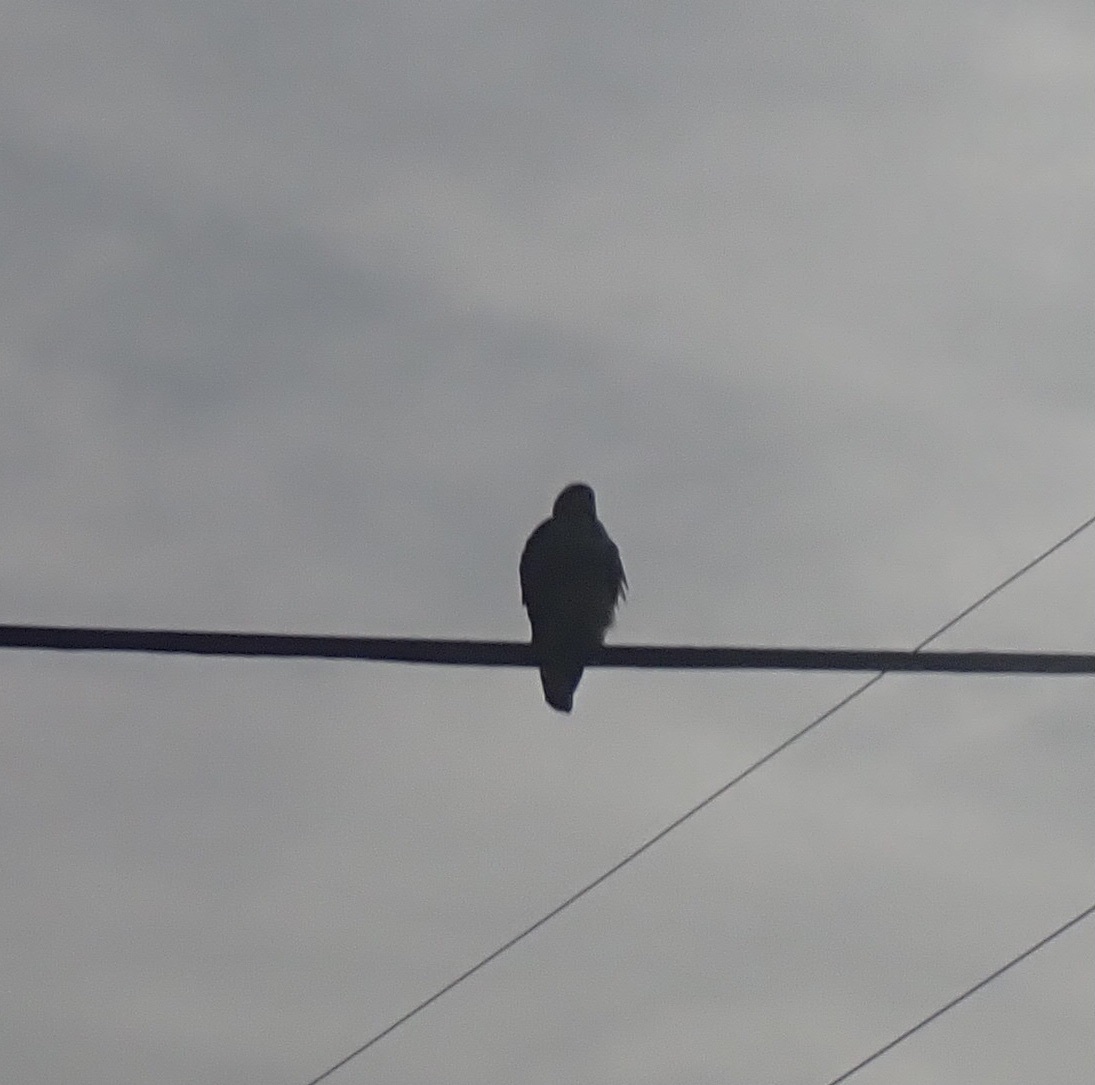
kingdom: Animalia
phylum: Chordata
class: Aves
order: Accipitriformes
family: Accipitridae
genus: Buteo
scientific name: Buteo jamaicensis
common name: Red-tailed hawk
